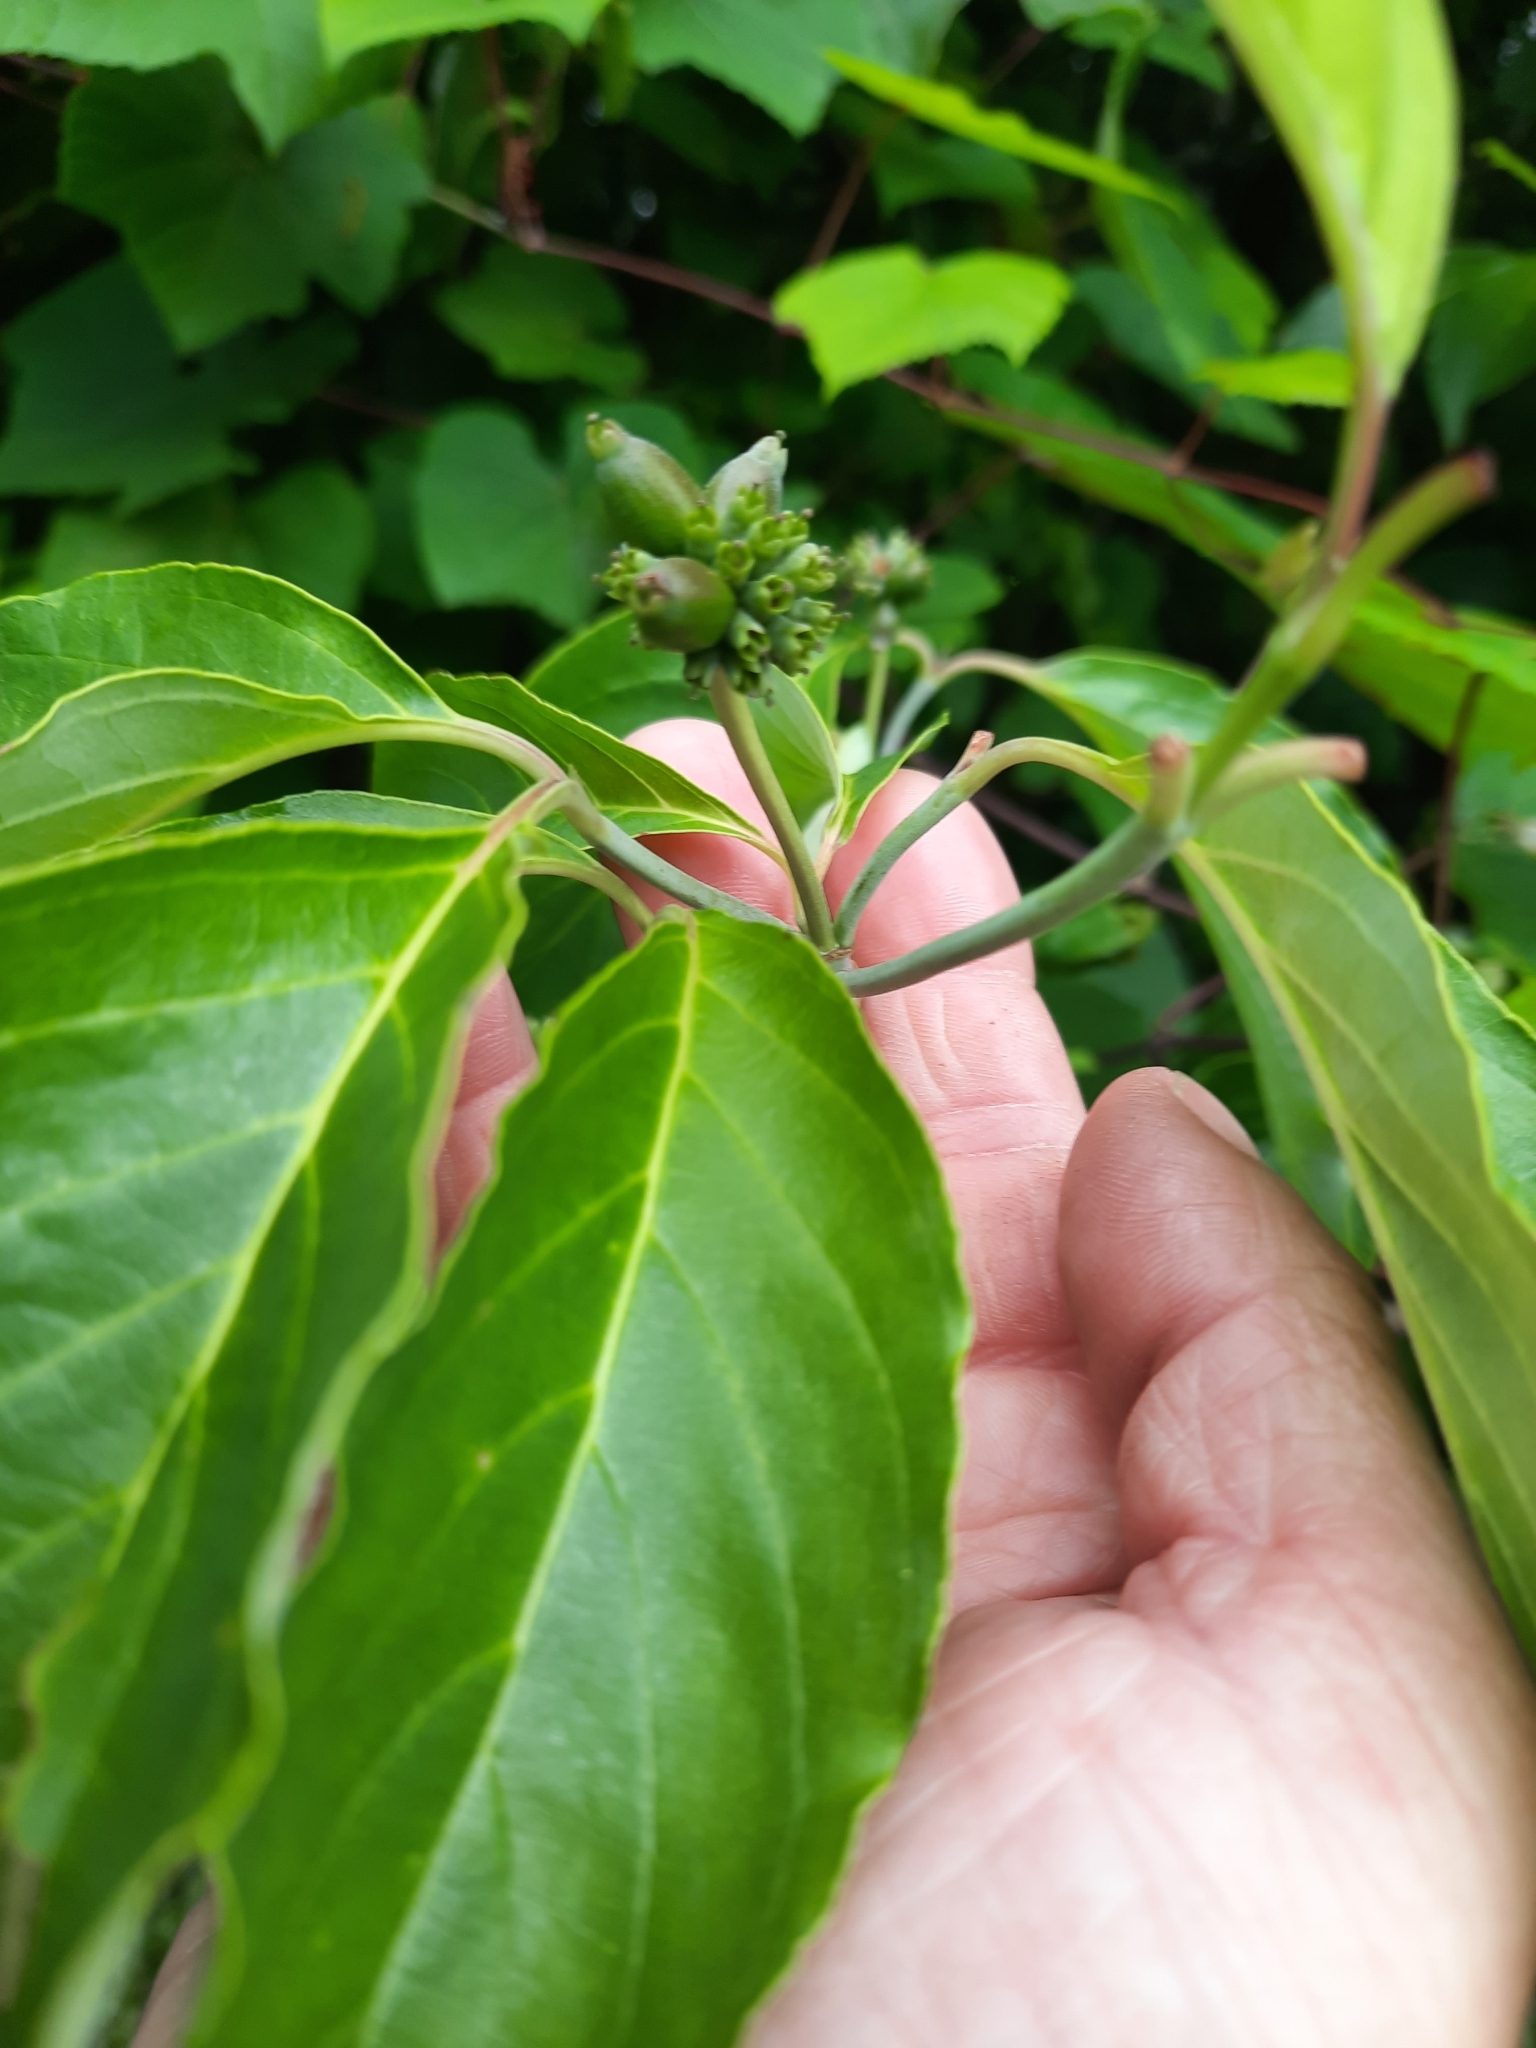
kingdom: Plantae
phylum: Tracheophyta
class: Magnoliopsida
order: Cornales
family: Cornaceae
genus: Cornus
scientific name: Cornus florida
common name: Flowering dogwood
